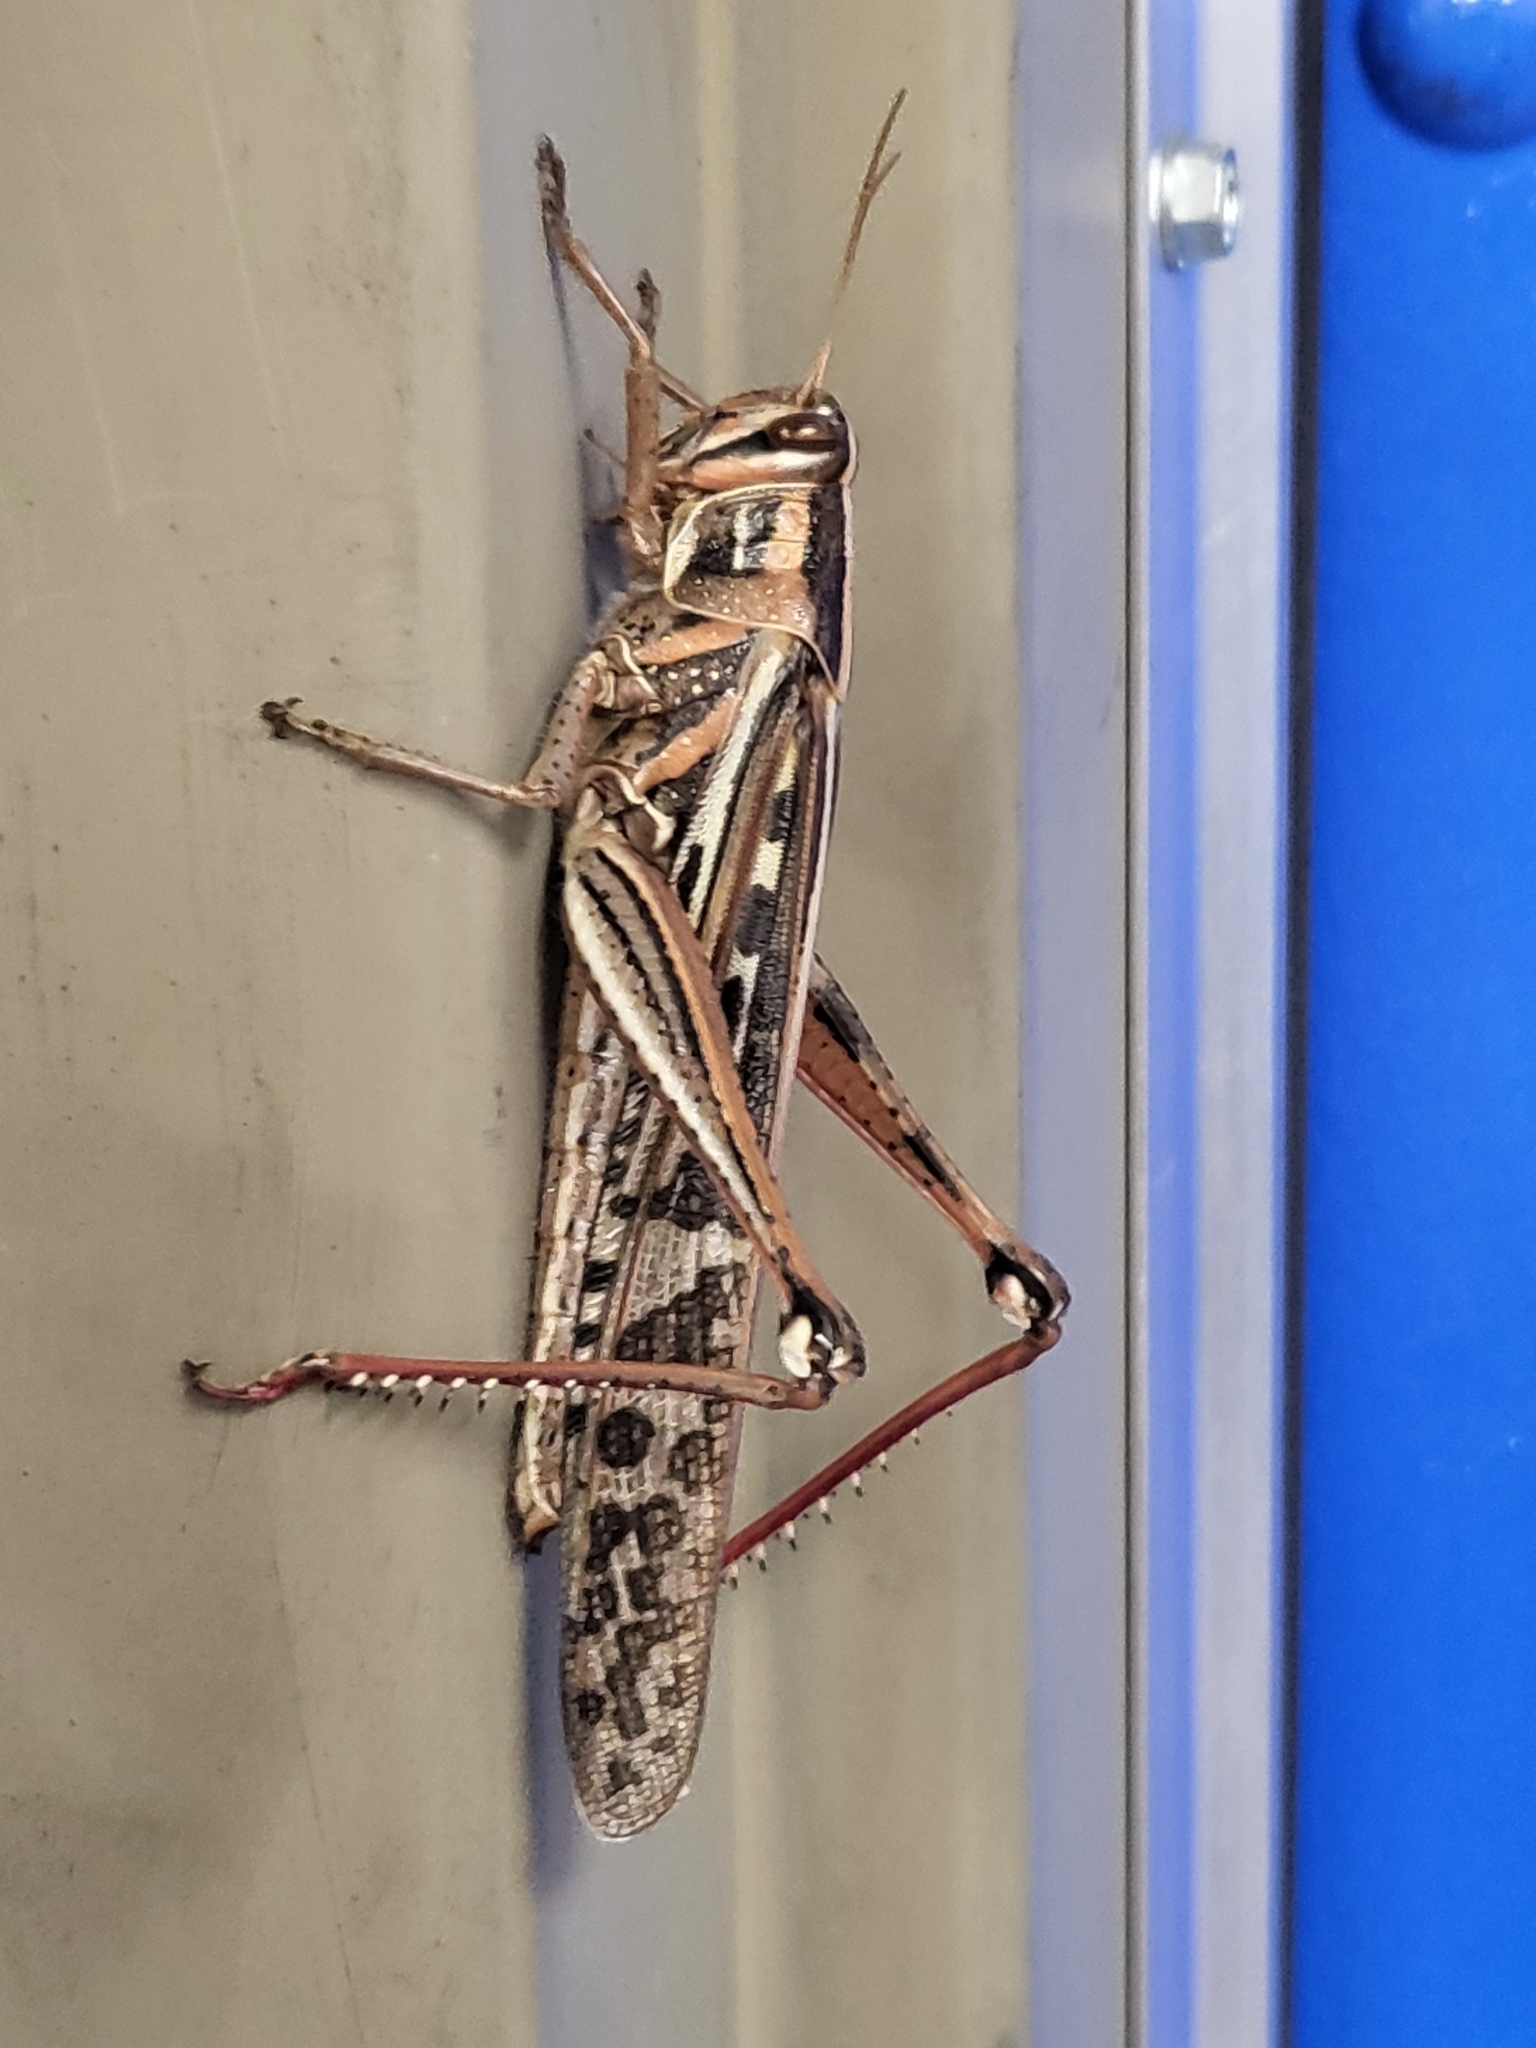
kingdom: Animalia
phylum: Arthropoda
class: Insecta
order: Orthoptera
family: Acrididae
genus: Schistocerca
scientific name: Schistocerca americana
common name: American bird locust
